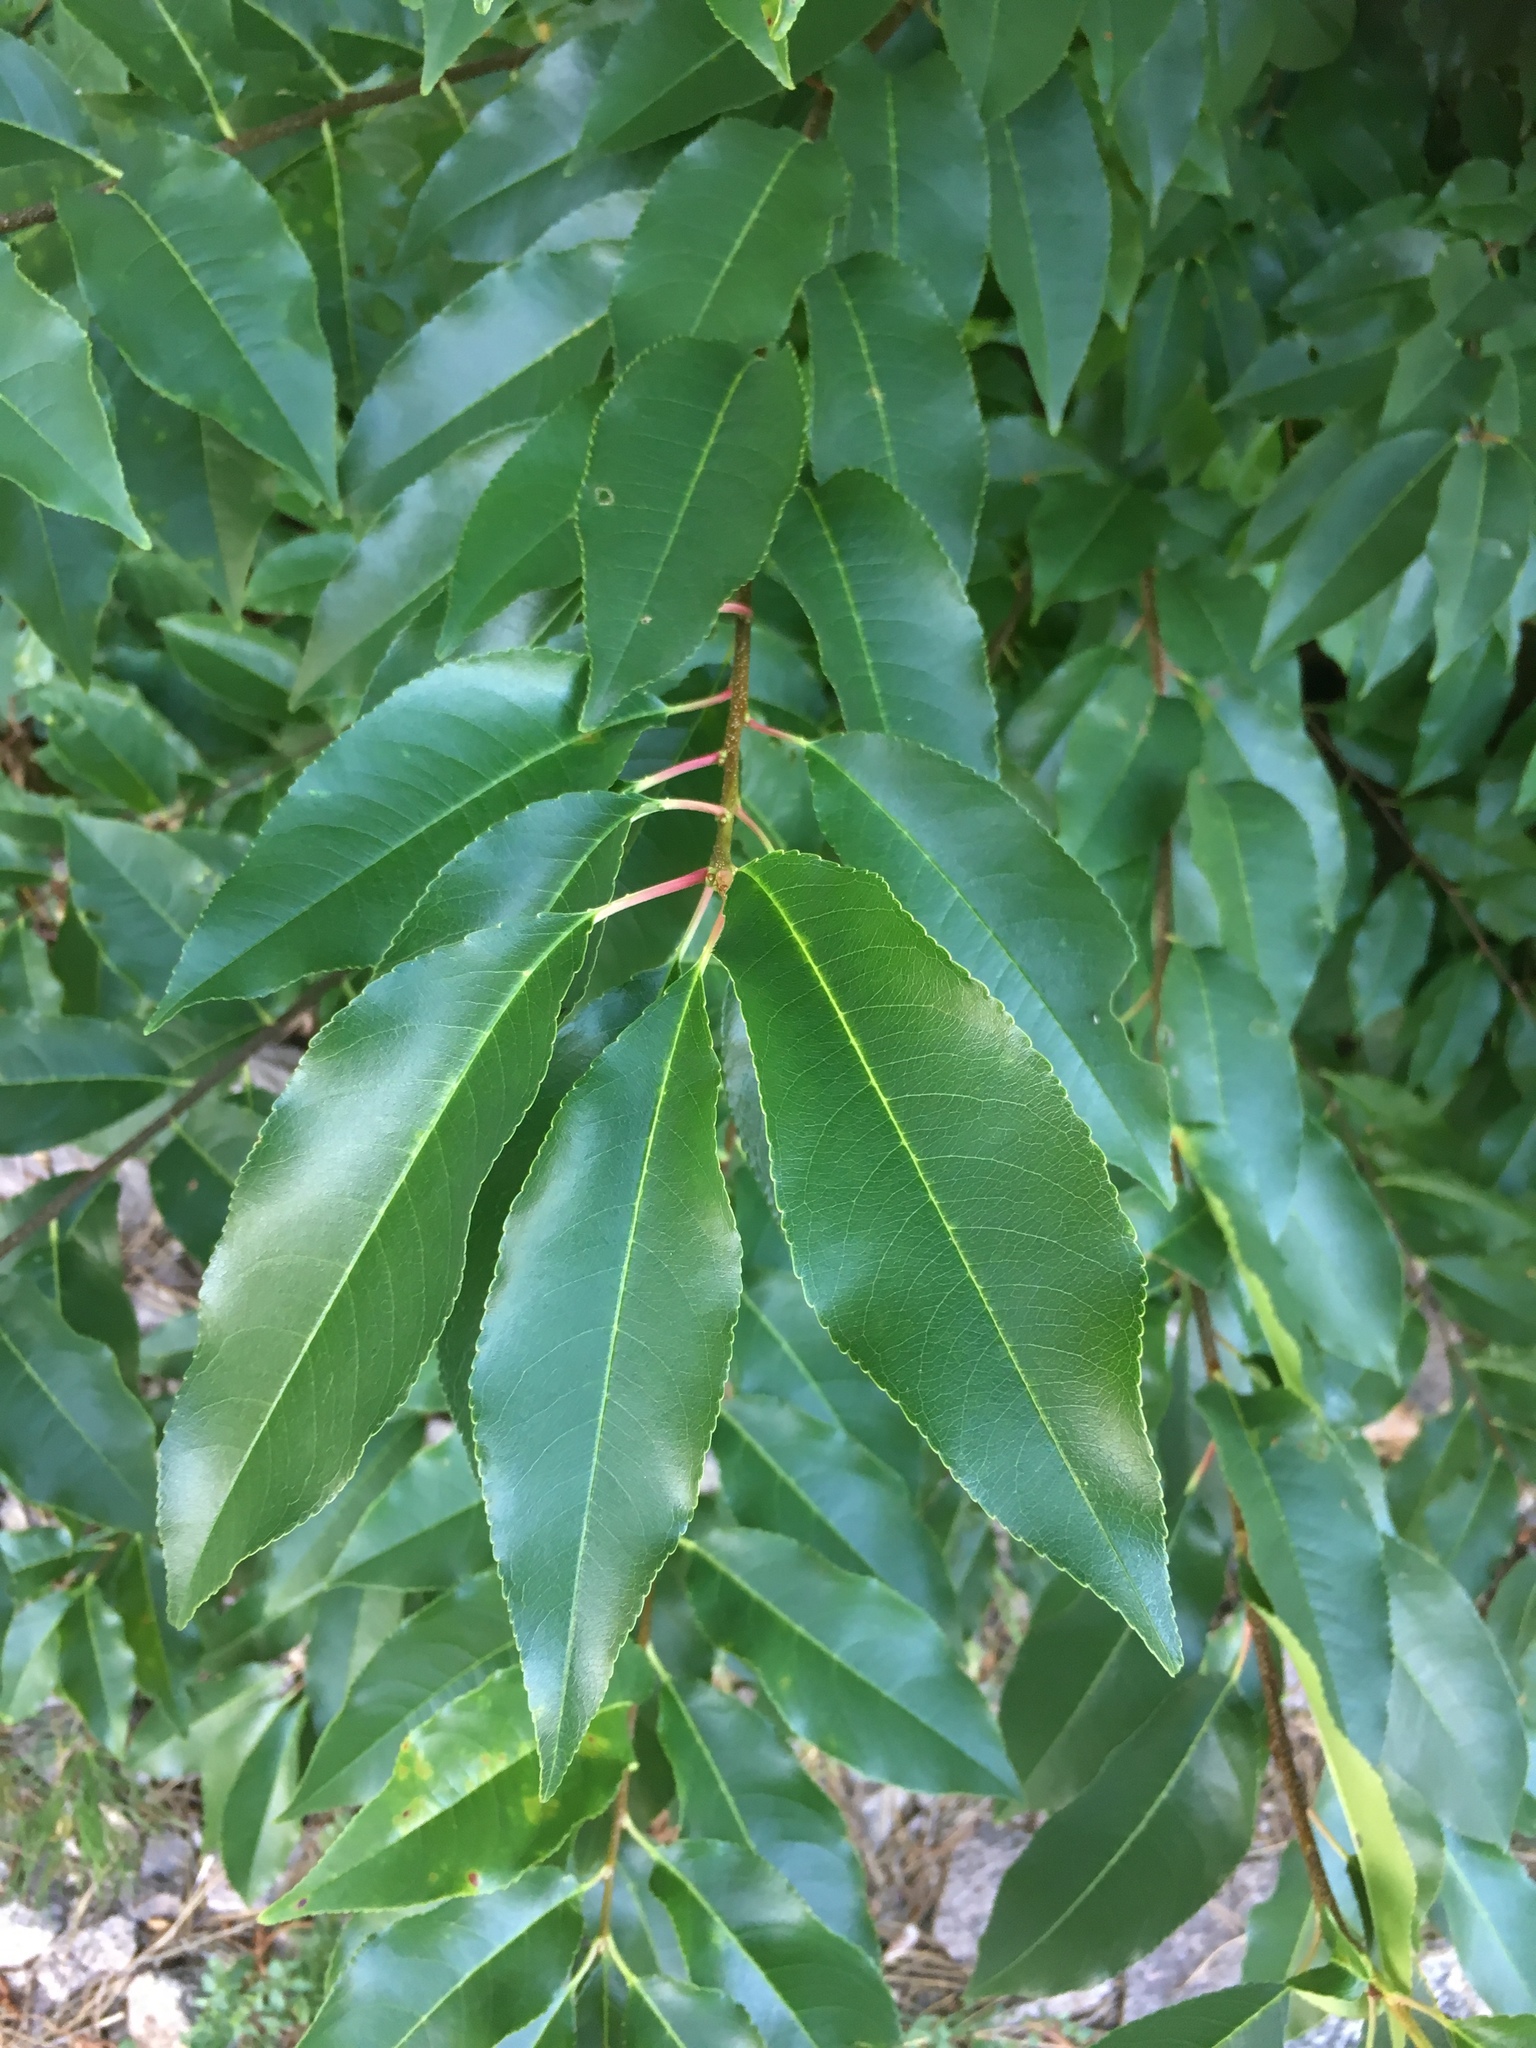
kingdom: Plantae
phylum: Tracheophyta
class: Magnoliopsida
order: Rosales
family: Rosaceae
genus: Prunus
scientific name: Prunus serotina
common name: Black cherry
